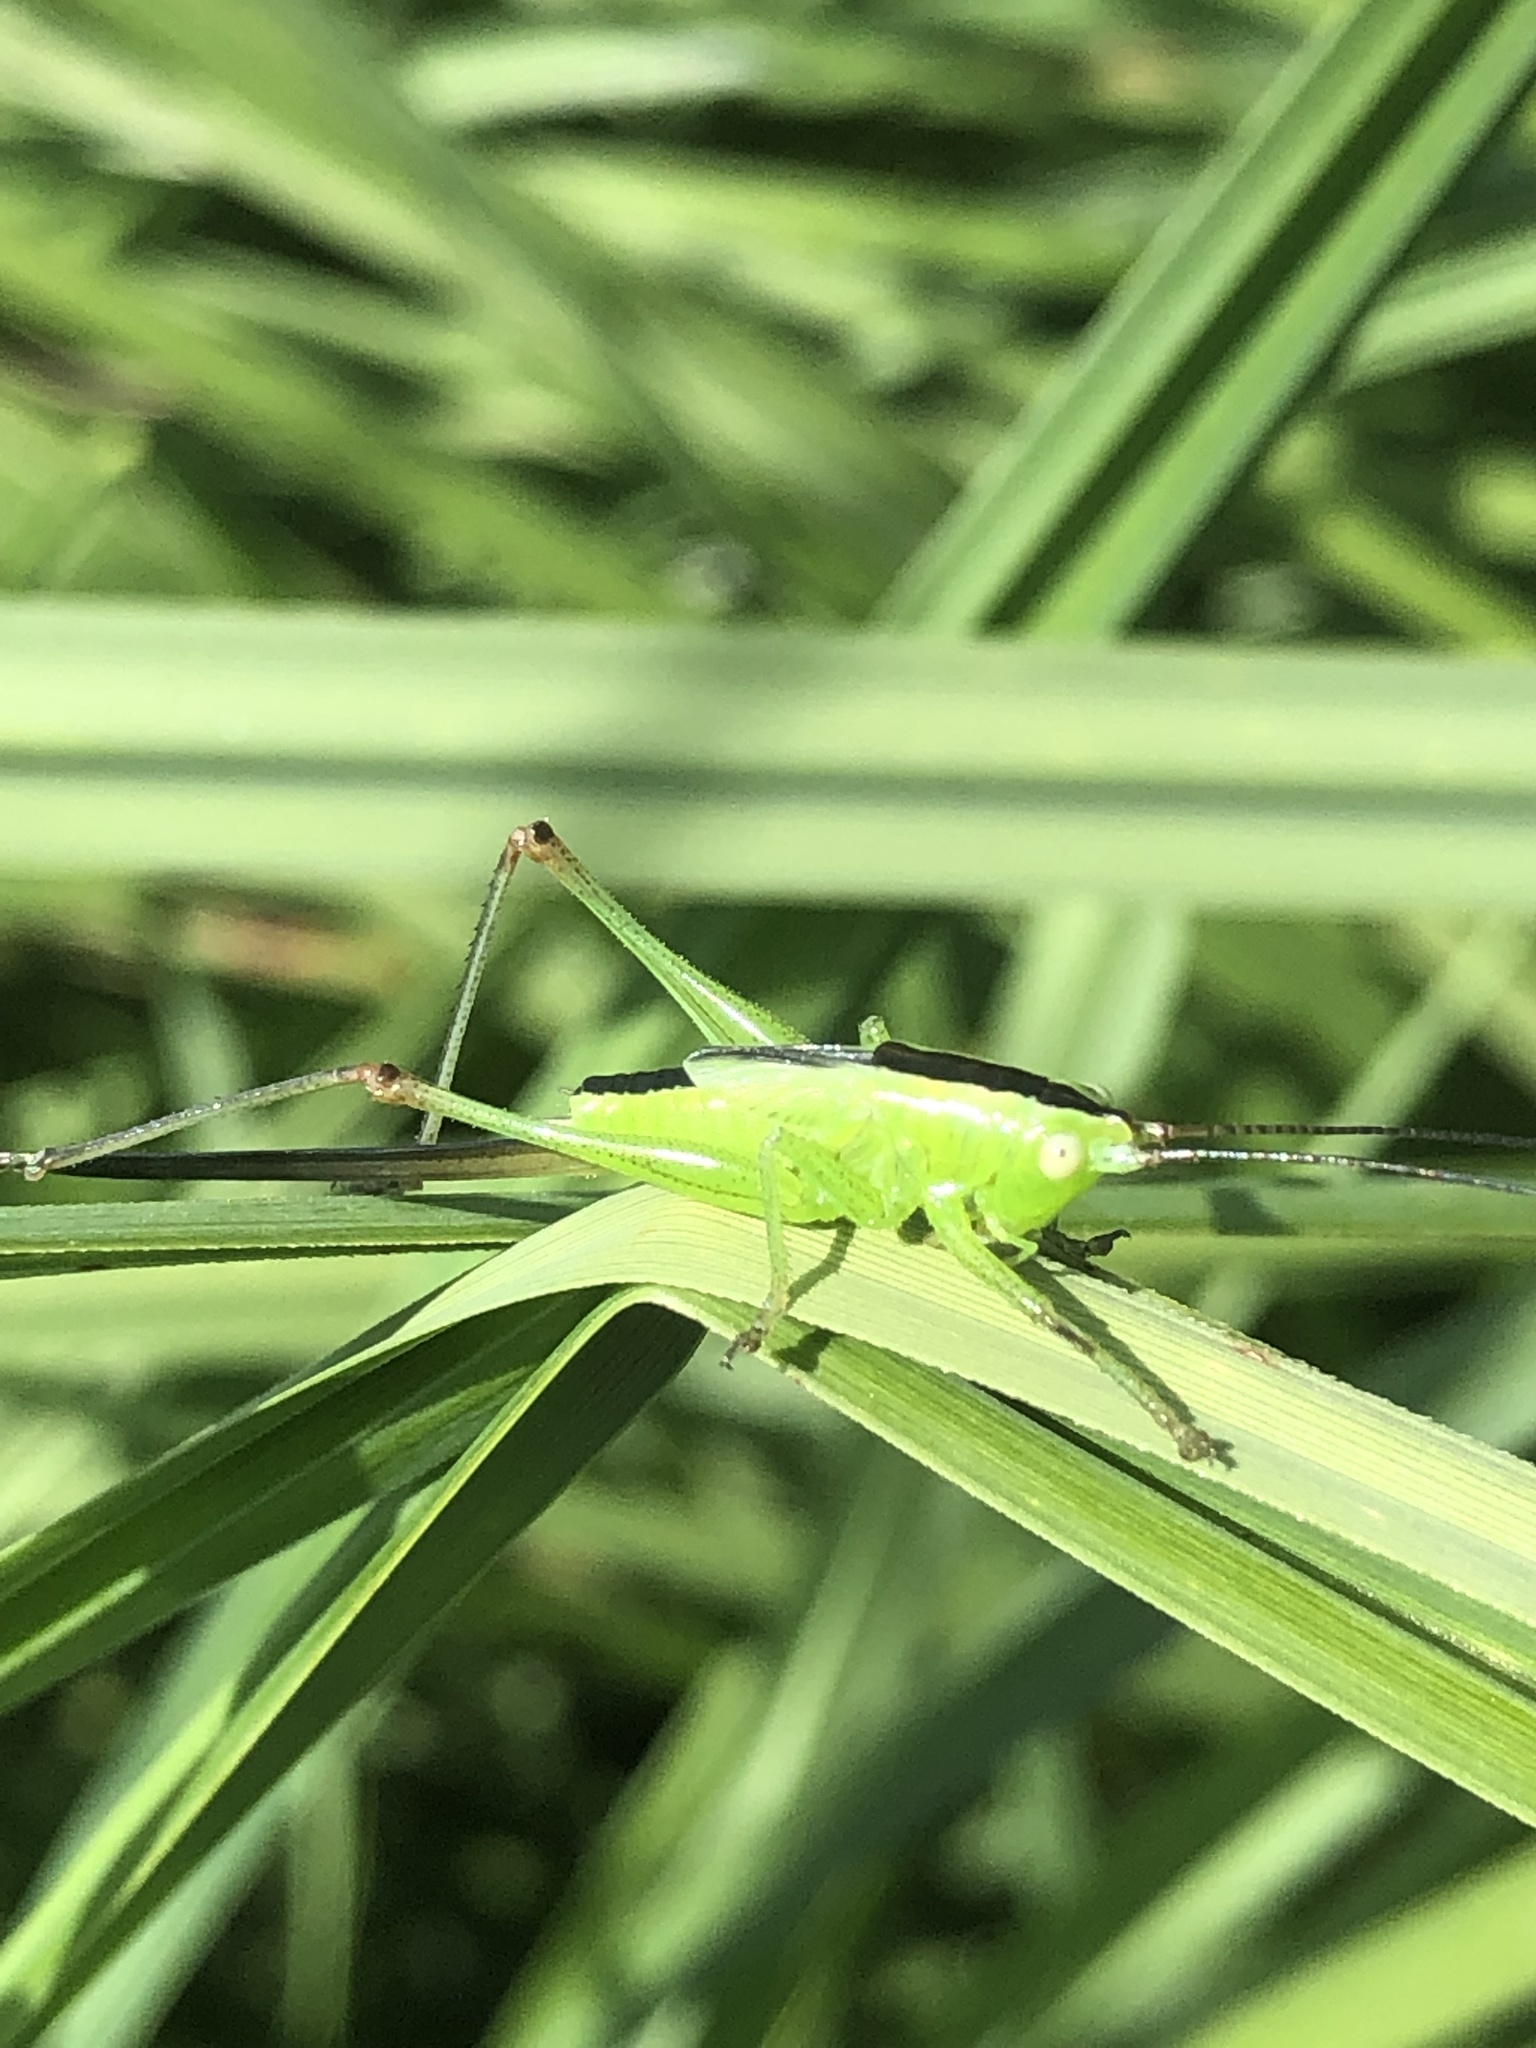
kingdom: Animalia
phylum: Arthropoda
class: Insecta
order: Orthoptera
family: Tettigoniidae
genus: Conocephalus
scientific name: Conocephalus fuscus
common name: Long-winged conehead
